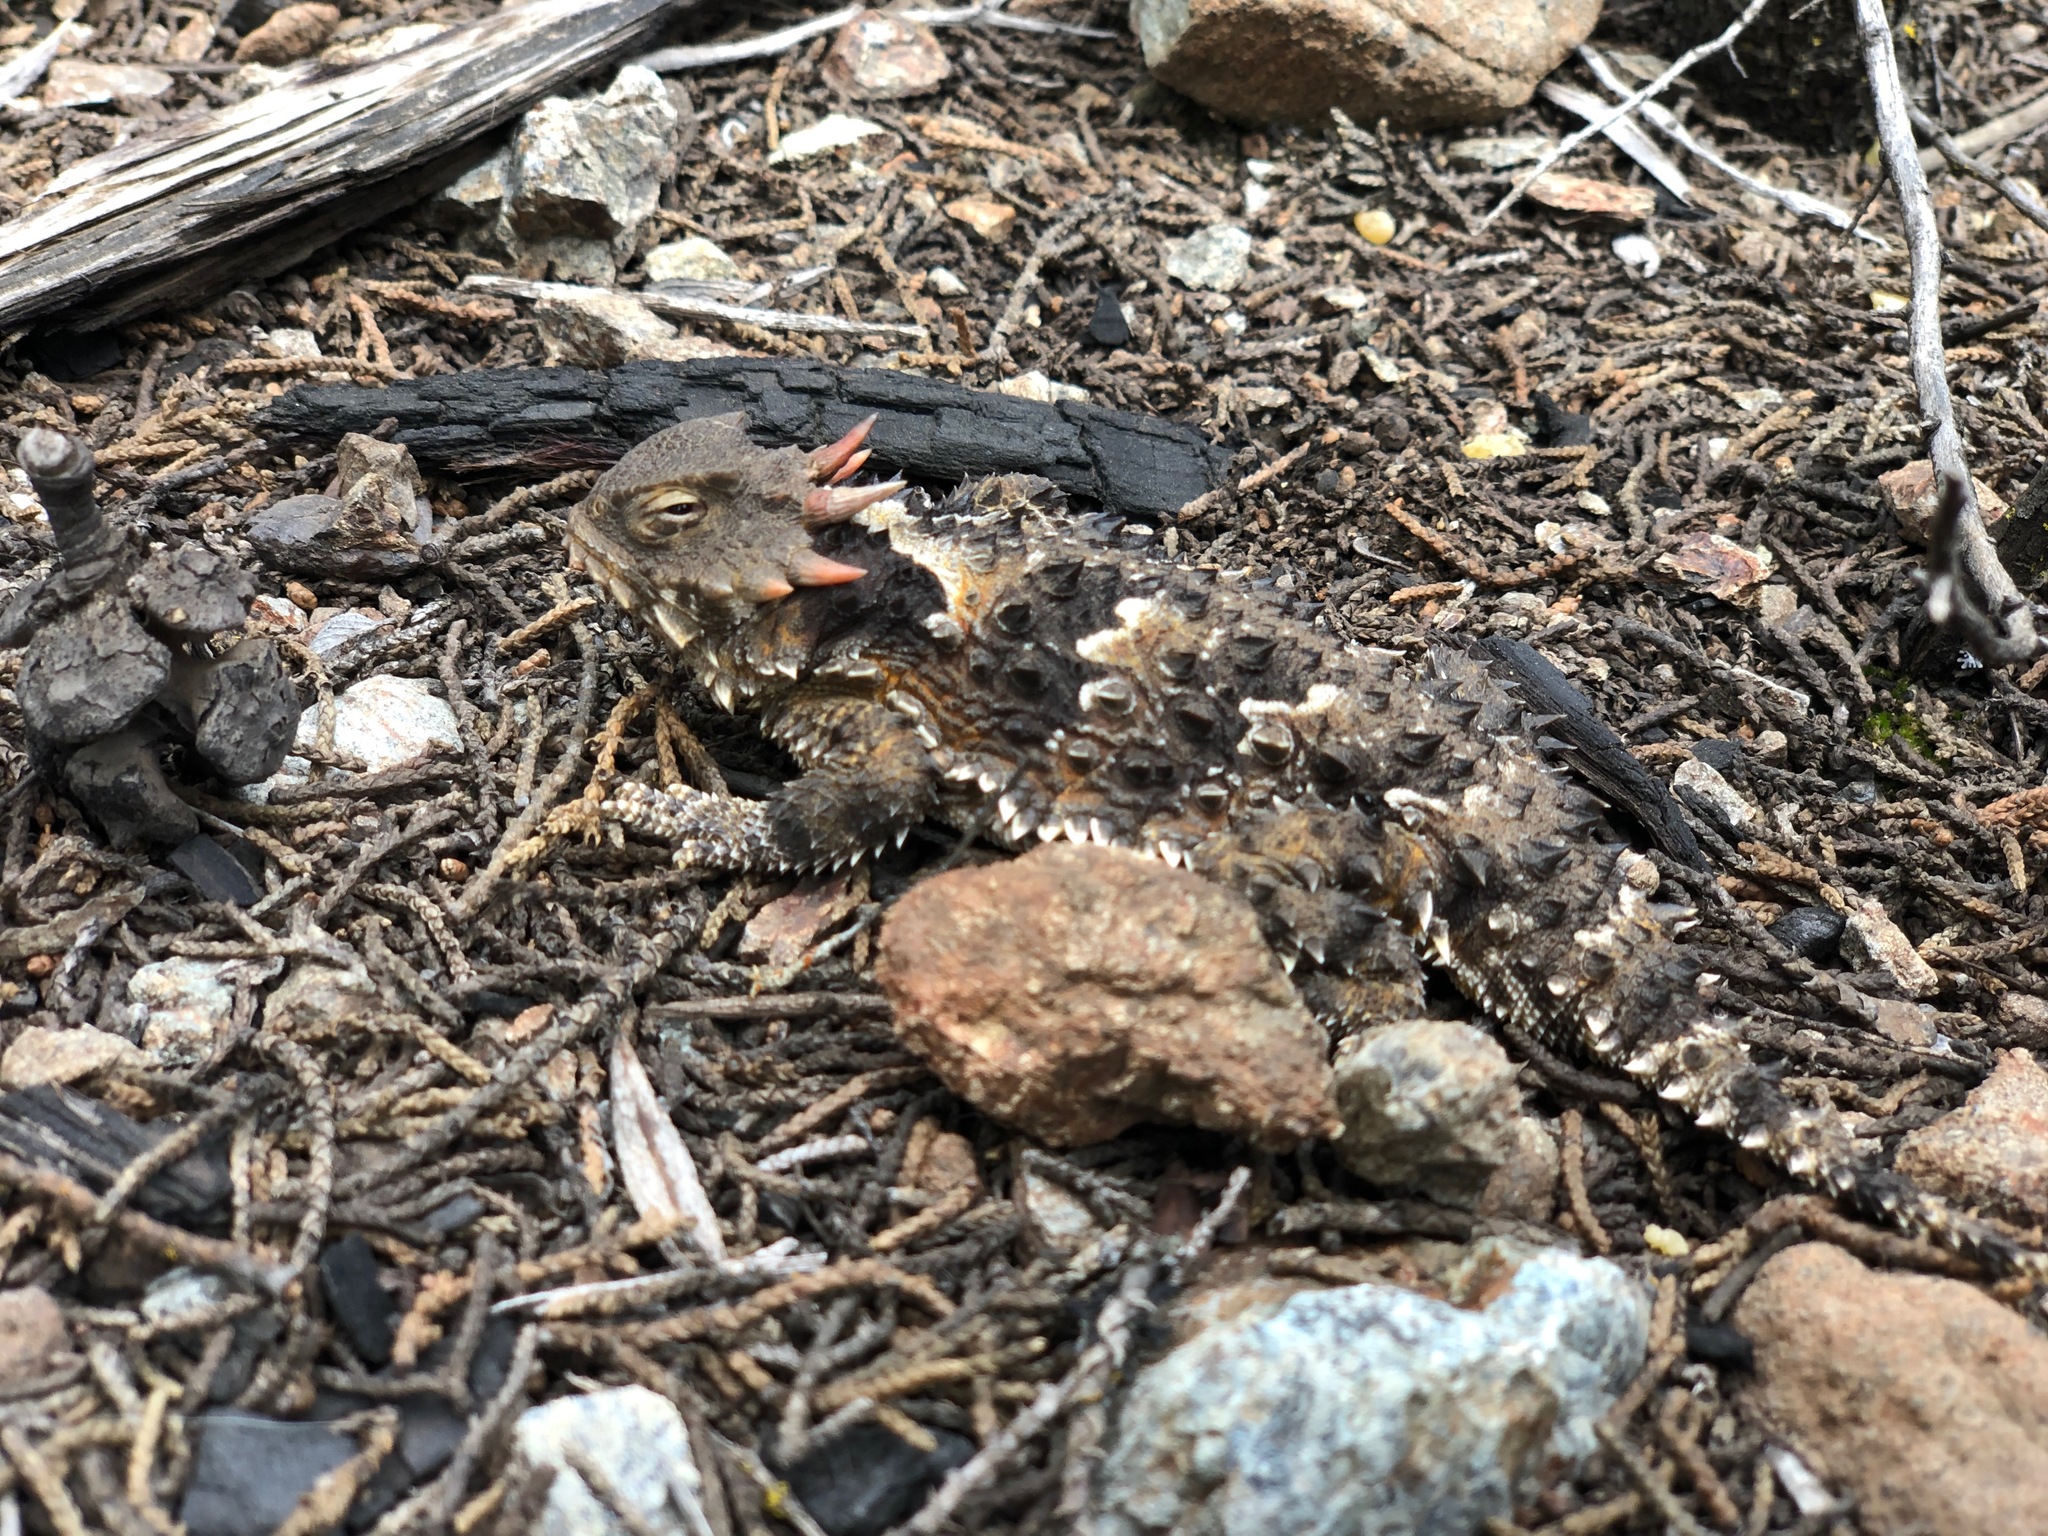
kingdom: Animalia
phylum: Chordata
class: Squamata
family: Phrynosomatidae
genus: Phrynosoma
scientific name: Phrynosoma blainvillii
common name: San diego horned lizard
